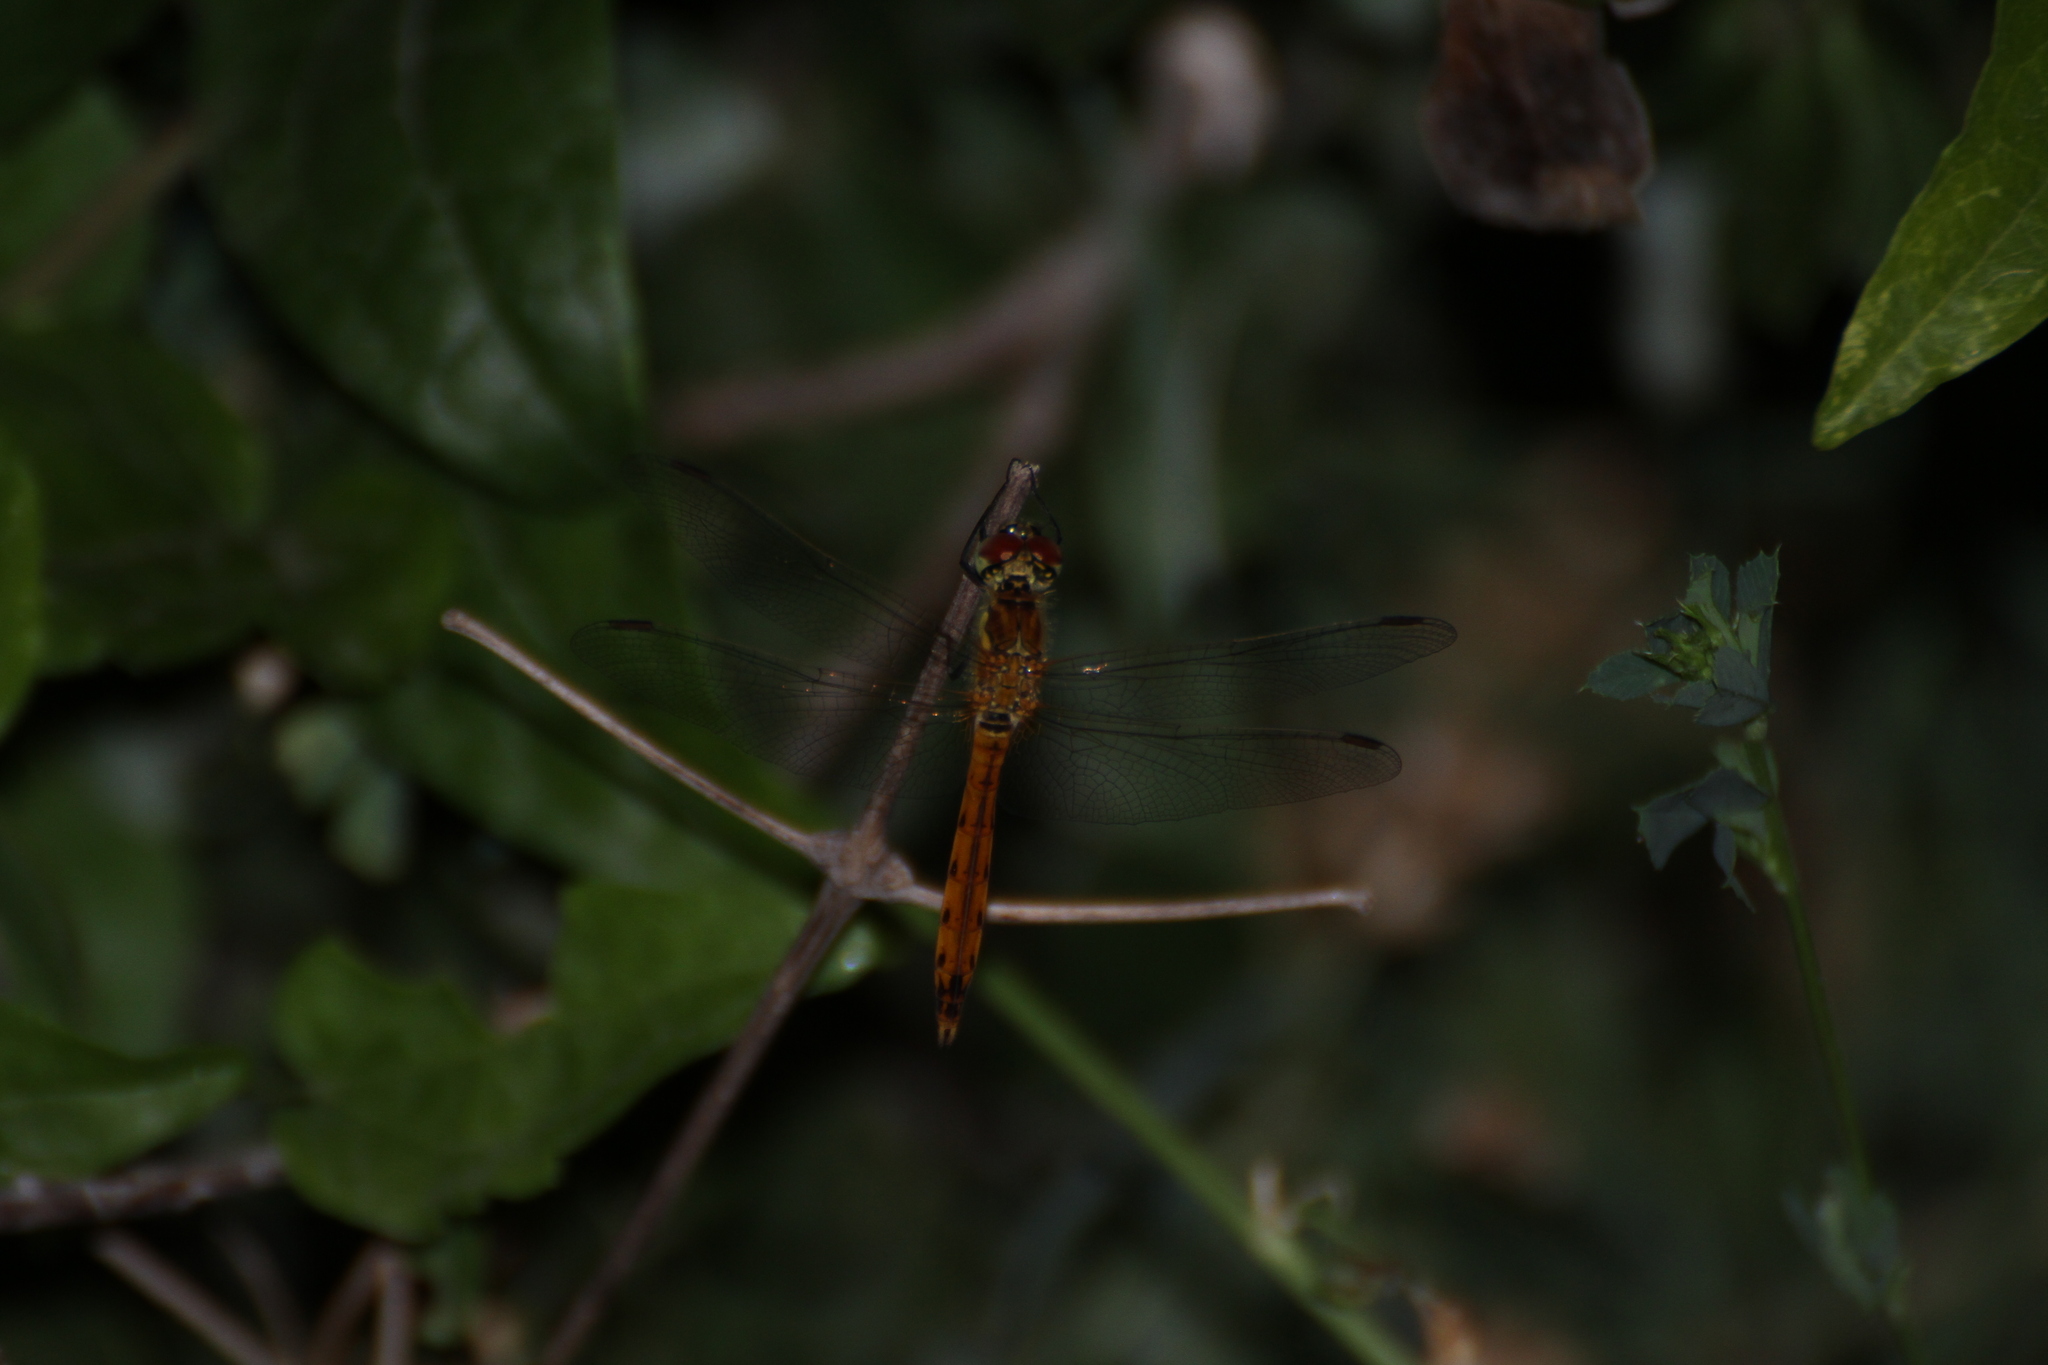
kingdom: Animalia
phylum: Arthropoda
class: Insecta
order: Odonata
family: Libellulidae
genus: Sympetrum
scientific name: Sympetrum depressiusculum
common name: Spotted darter
